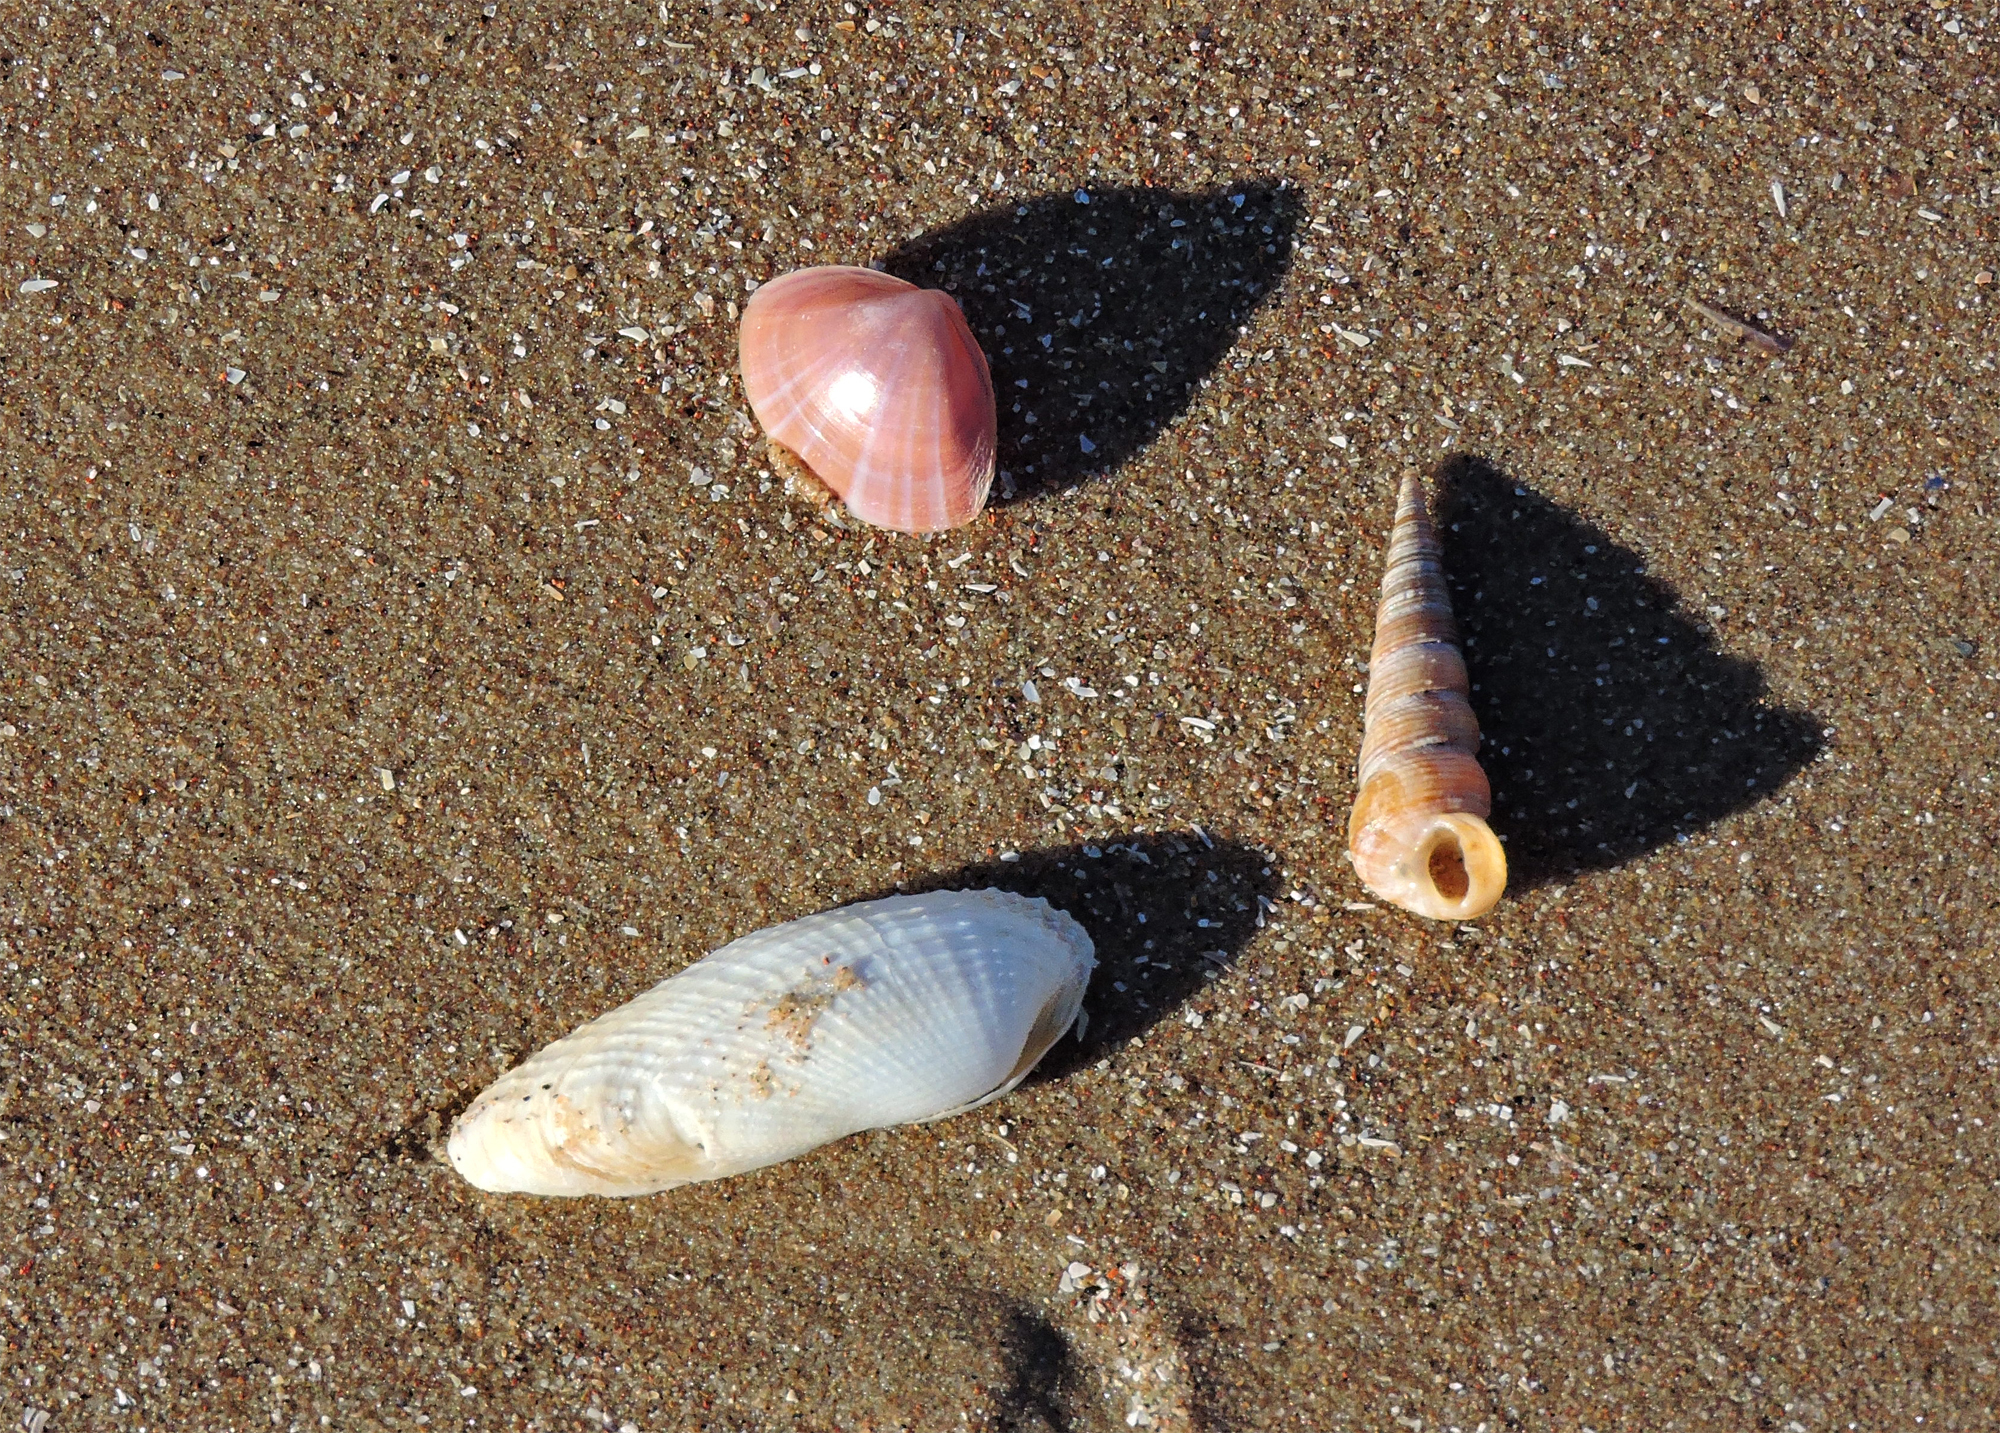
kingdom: Animalia
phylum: Mollusca
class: Gastropoda
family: Turritellidae
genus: Turritellinella
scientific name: Turritellinella tricarinata
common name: Auger shell
